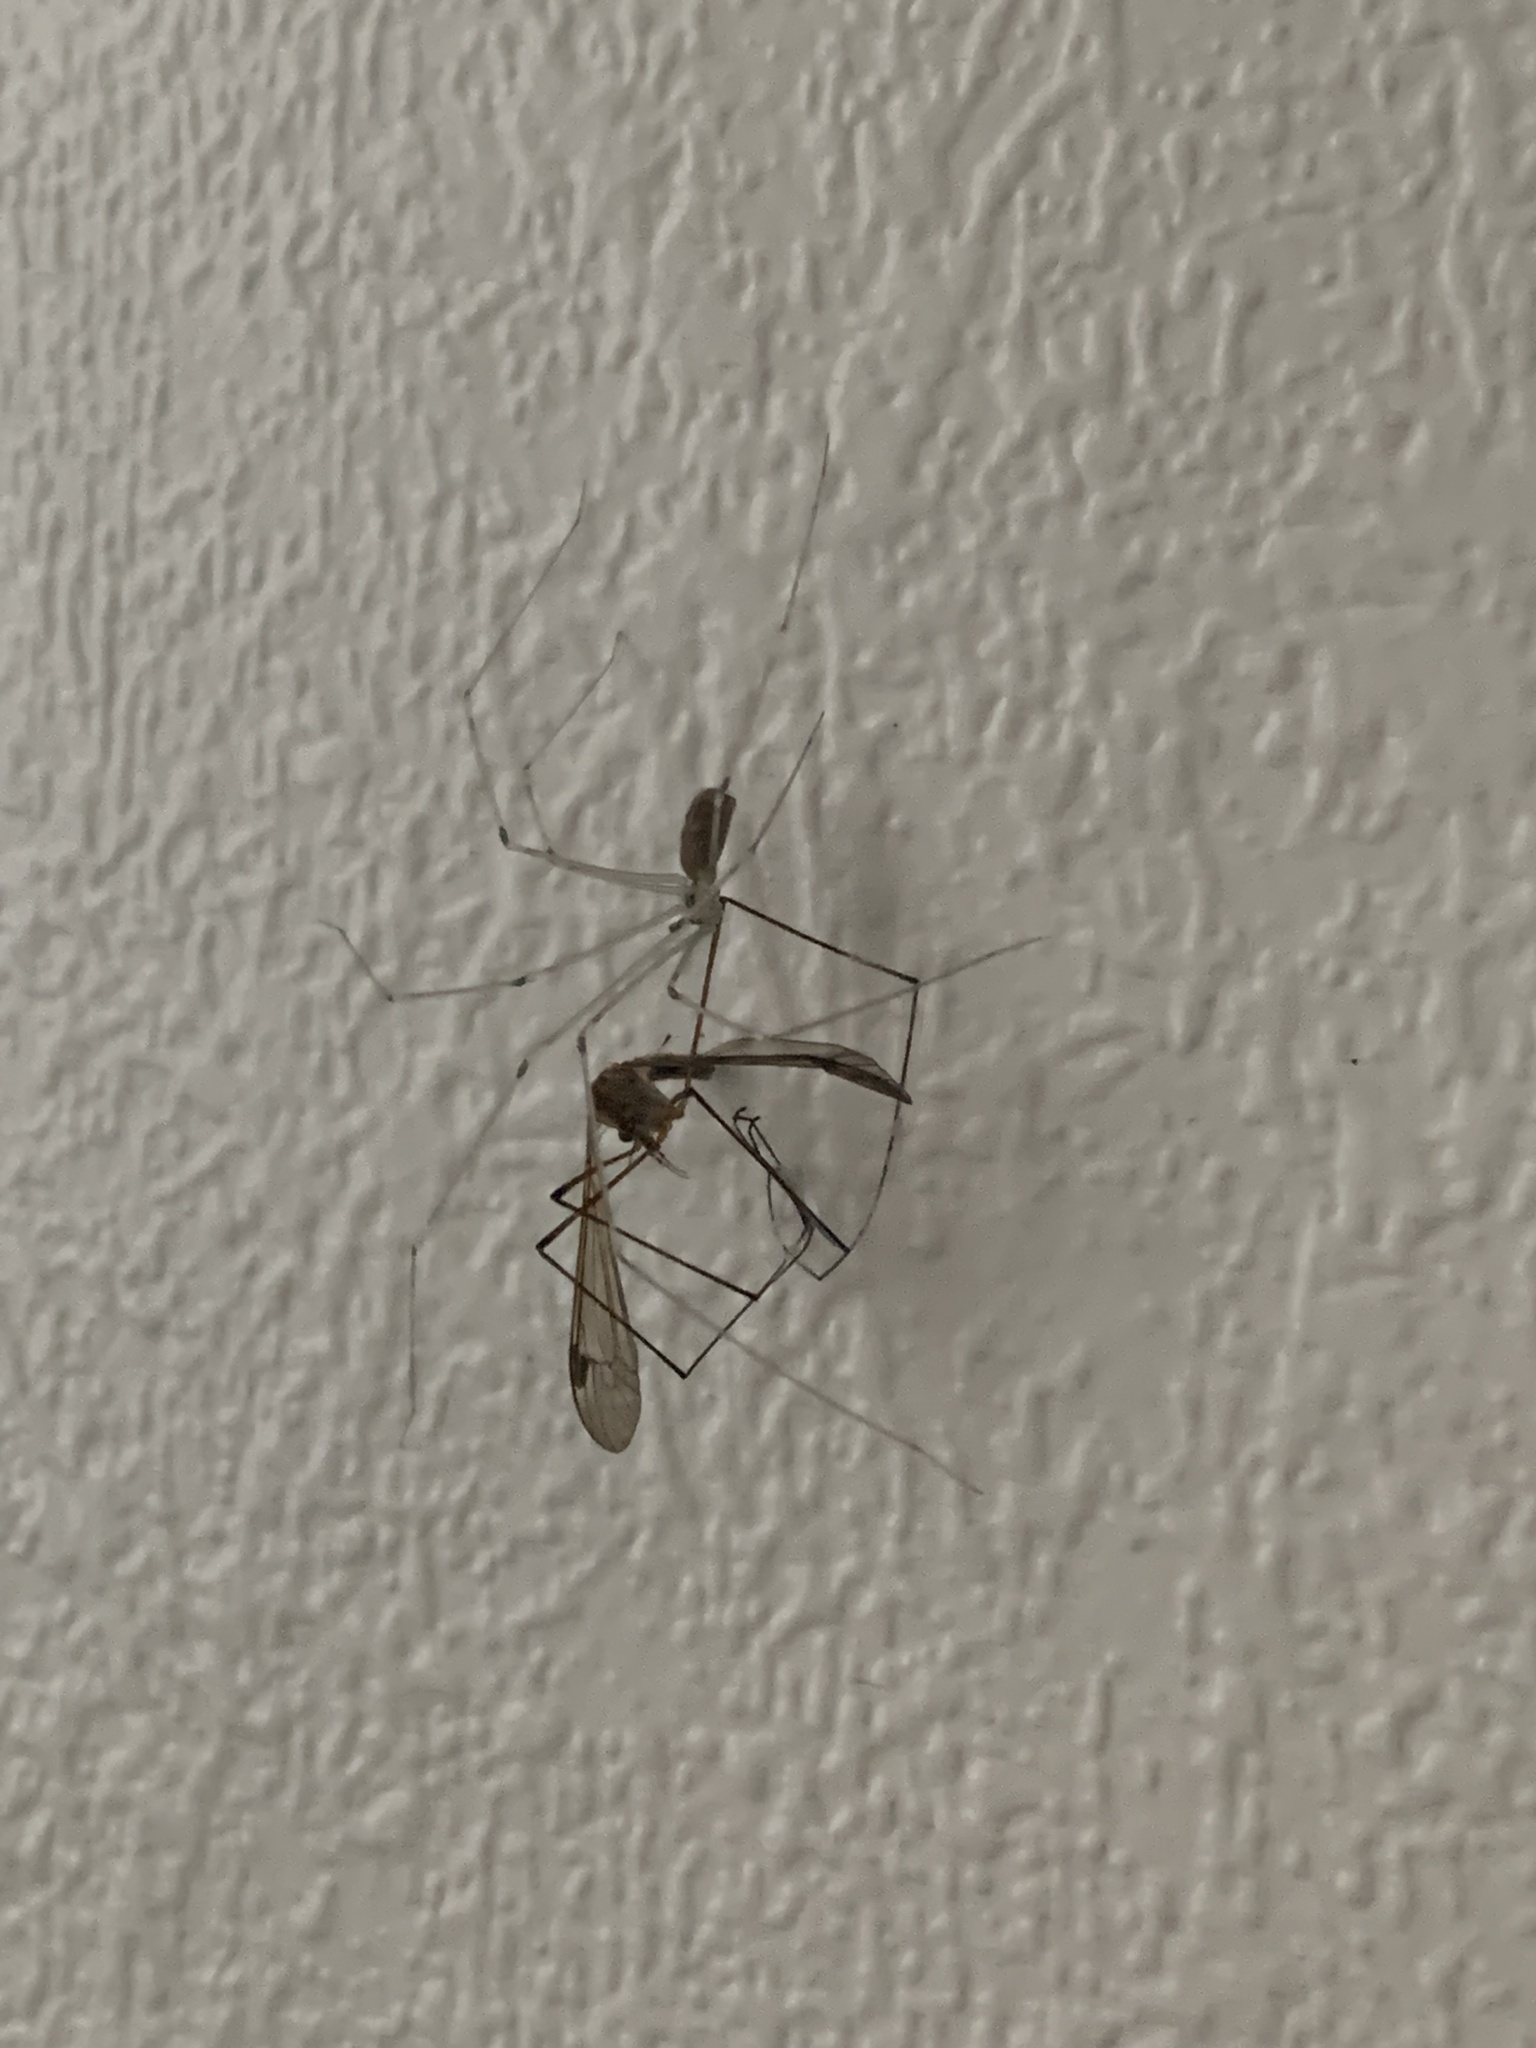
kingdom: Animalia
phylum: Arthropoda
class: Arachnida
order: Araneae
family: Pholcidae
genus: Pholcus
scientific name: Pholcus phalangioides
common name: Longbodied cellar spider
